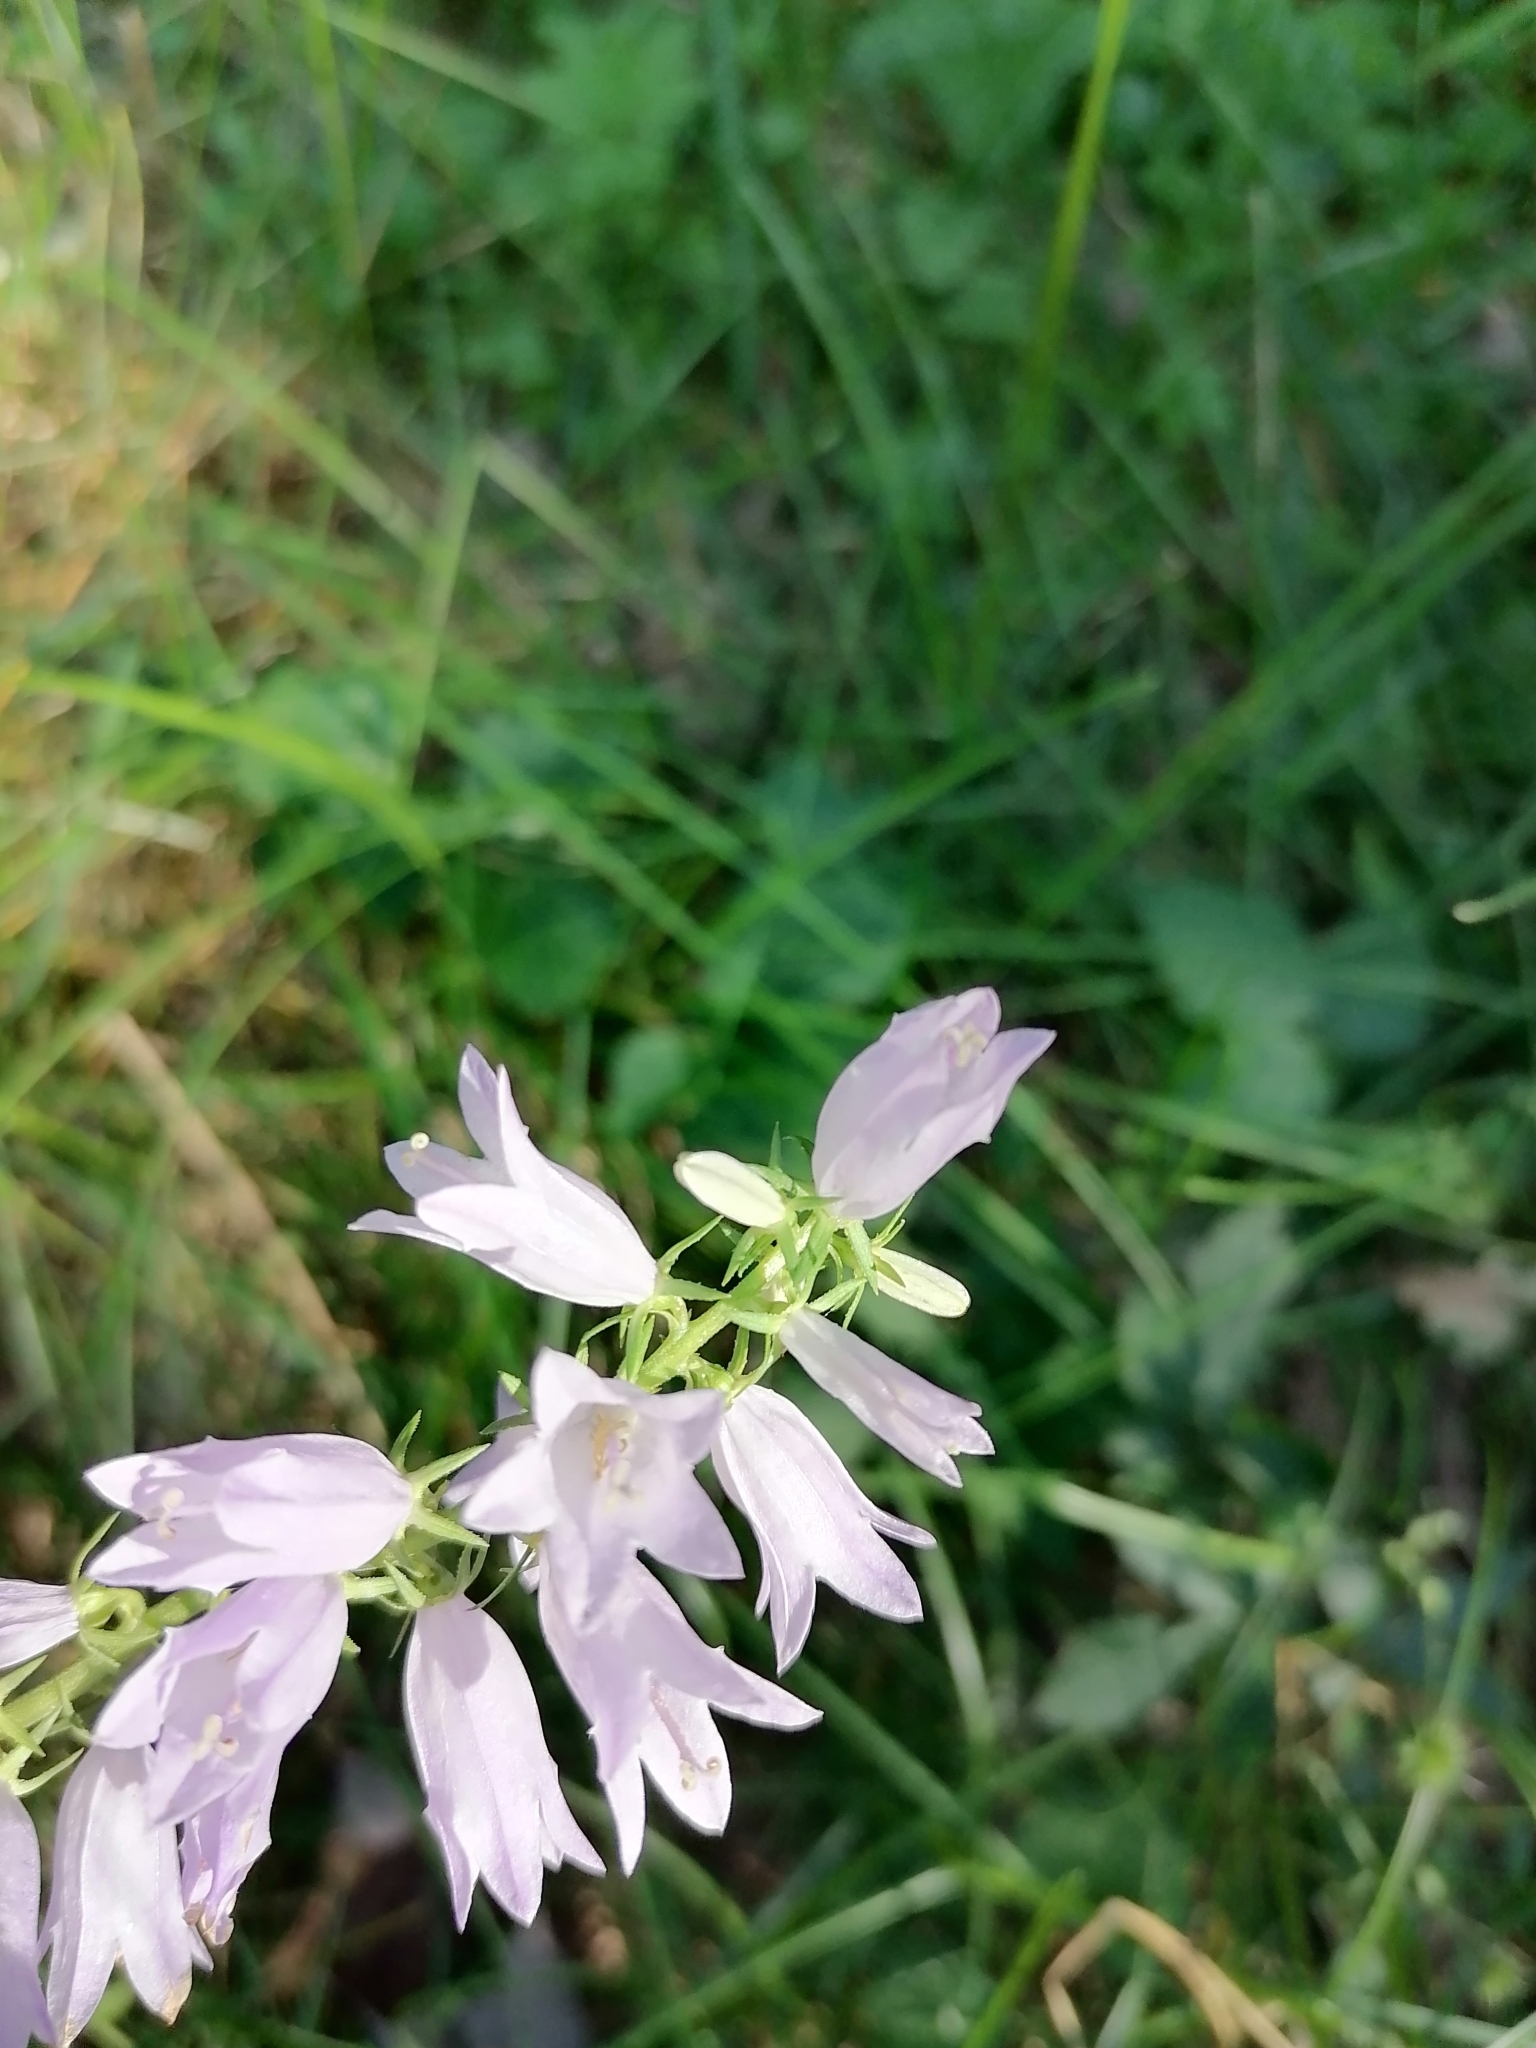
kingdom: Plantae
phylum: Tracheophyta
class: Magnoliopsida
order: Asterales
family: Campanulaceae
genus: Campanula
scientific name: Campanula bononiensis
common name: Pale bellflower
